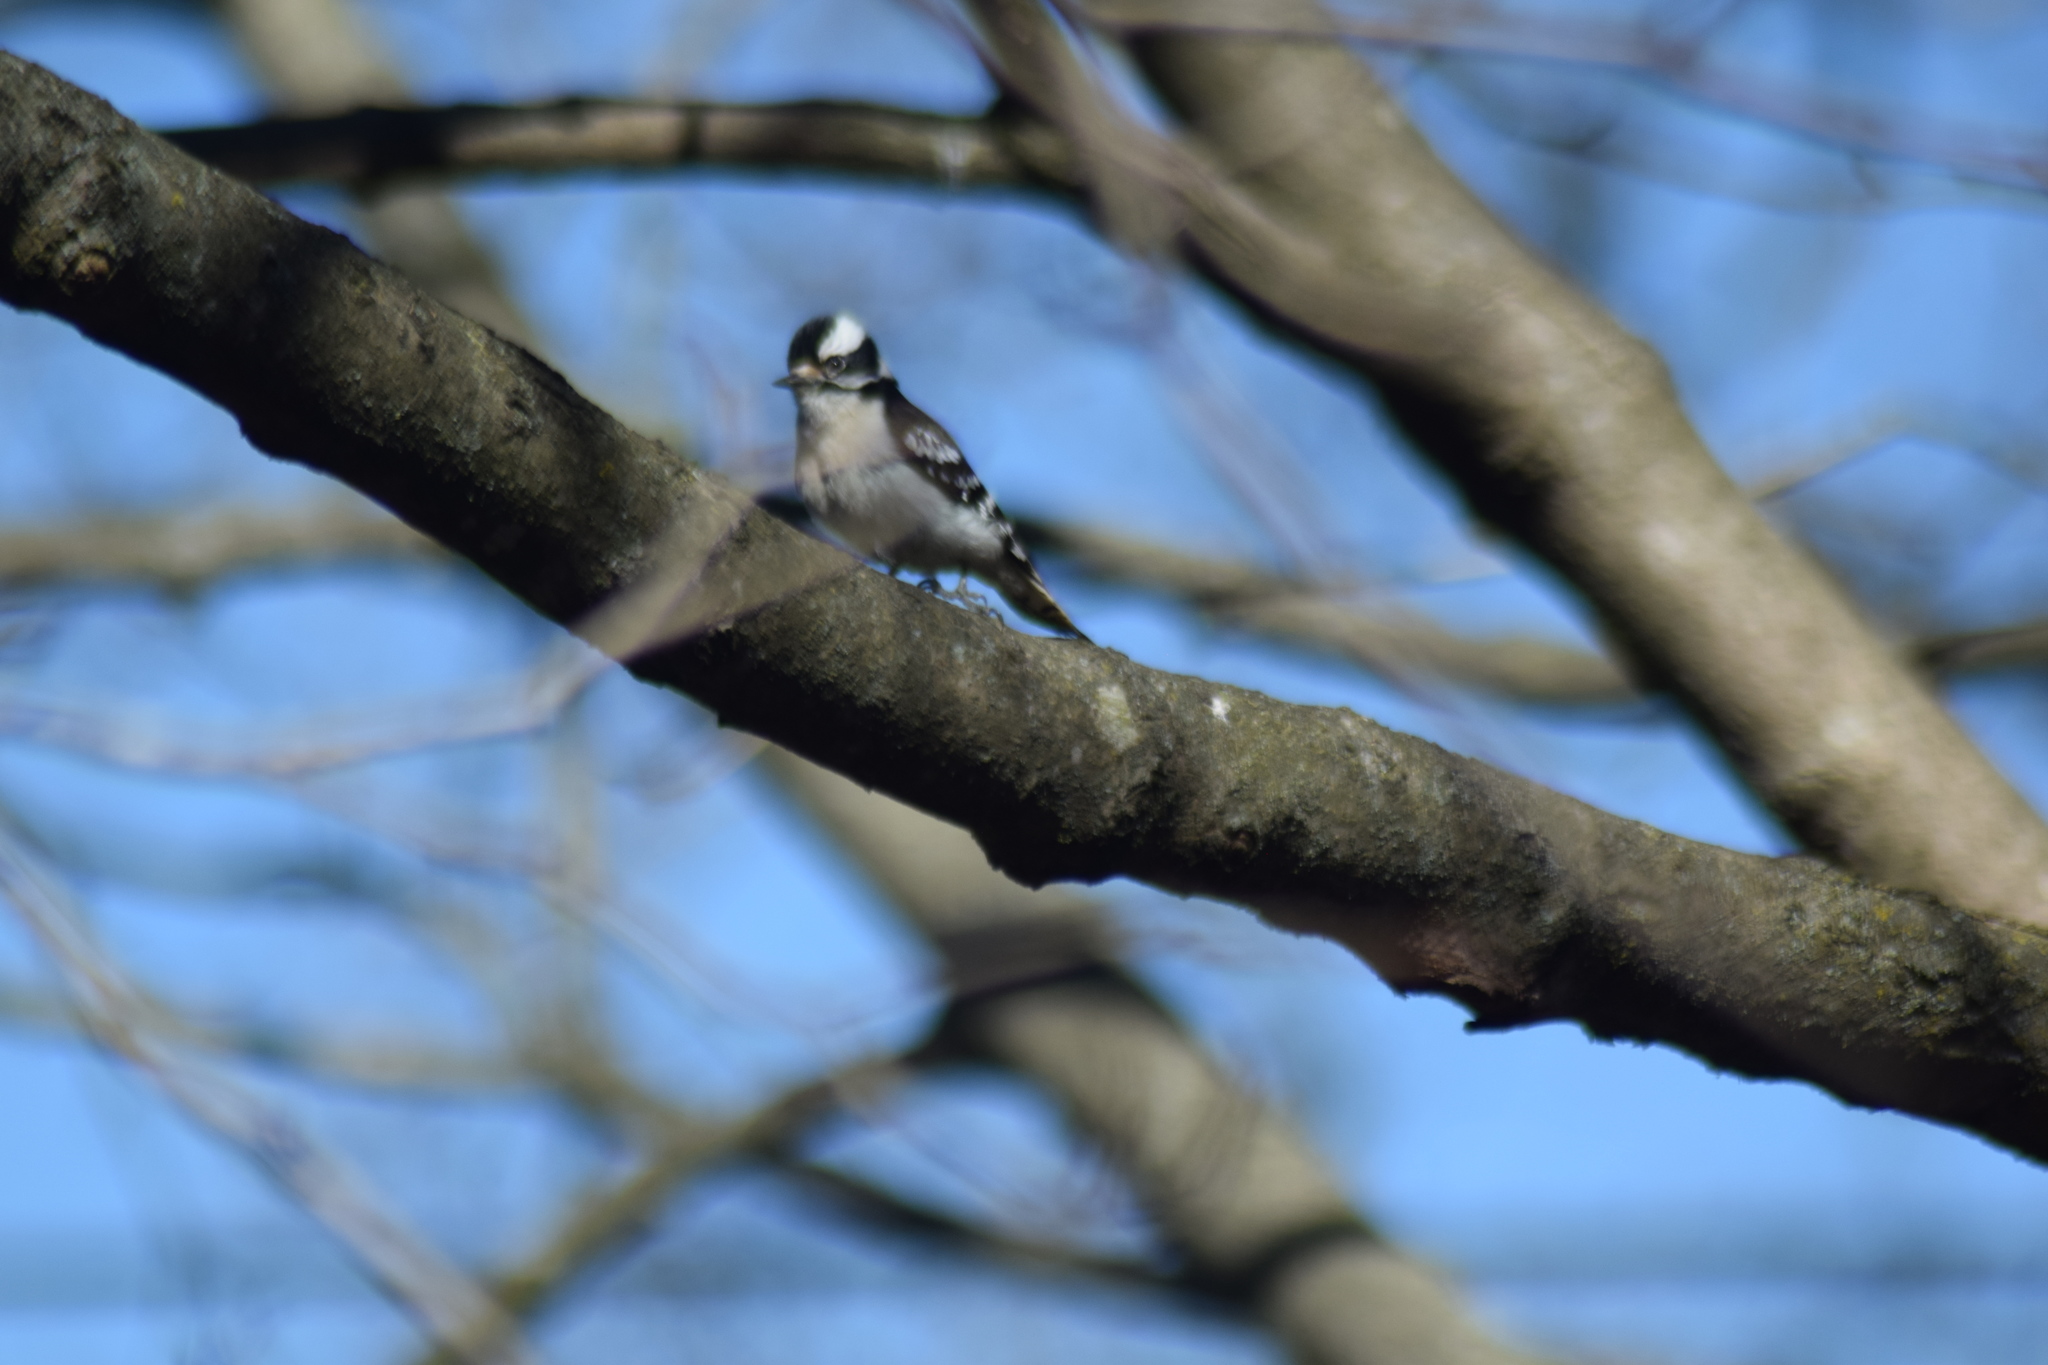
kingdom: Animalia
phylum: Chordata
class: Aves
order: Piciformes
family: Picidae
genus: Dryobates
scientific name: Dryobates pubescens
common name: Downy woodpecker
